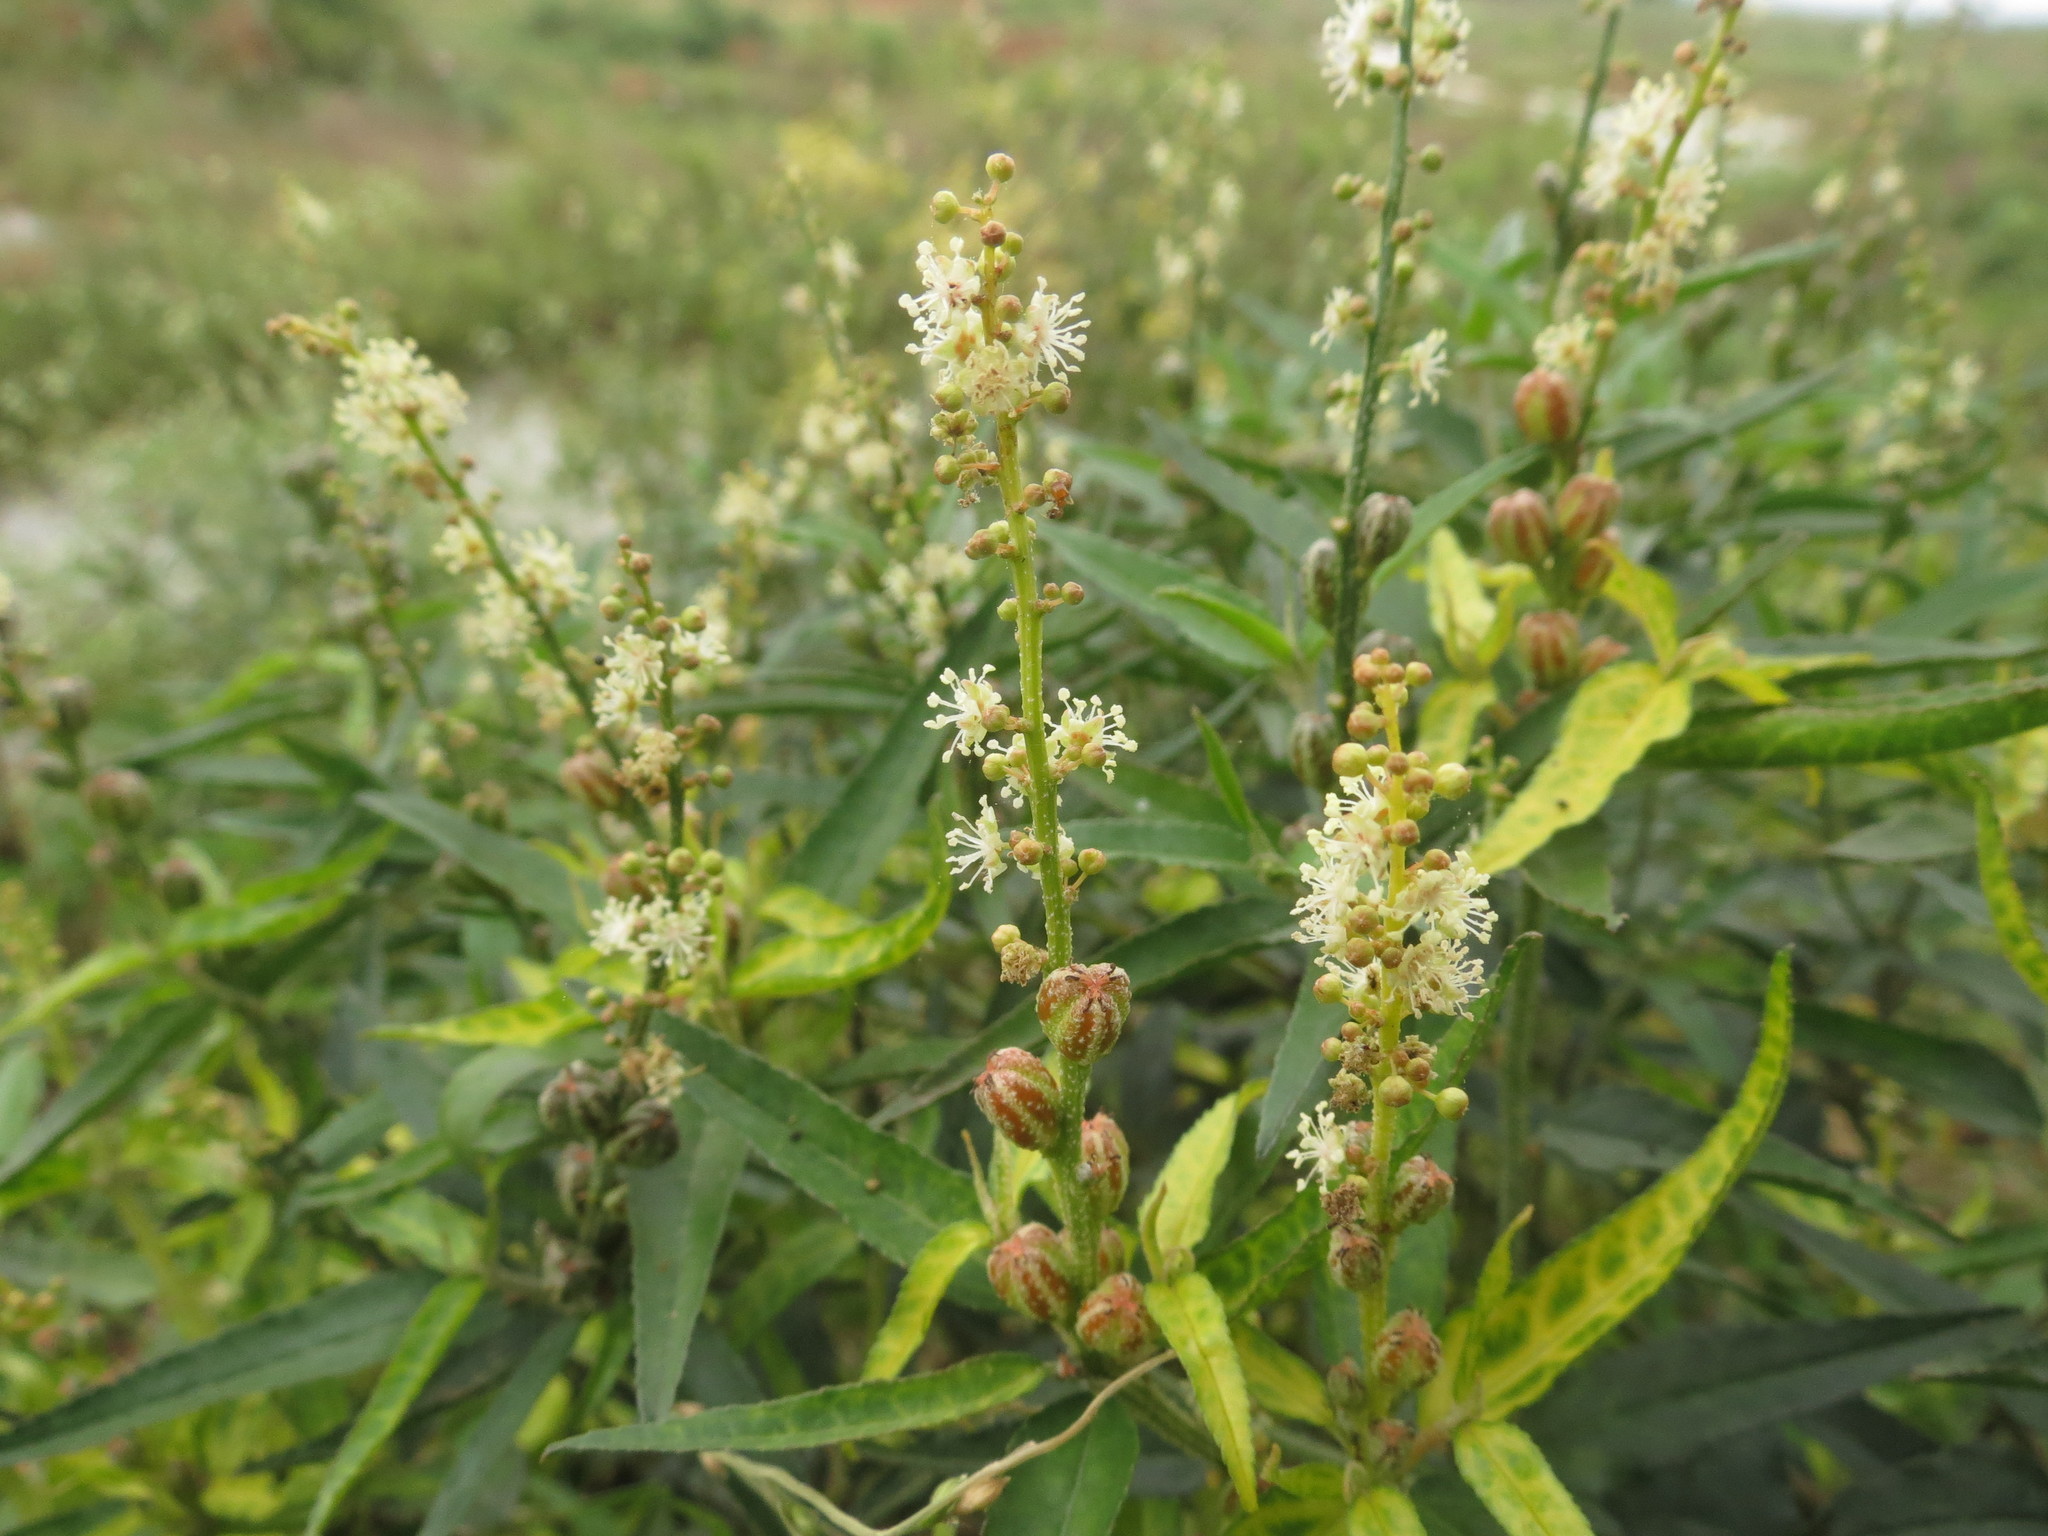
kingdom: Plantae
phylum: Tracheophyta
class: Magnoliopsida
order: Malpighiales
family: Euphorbiaceae
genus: Croton
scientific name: Croton bonplandianus
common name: Bonpland's croton
